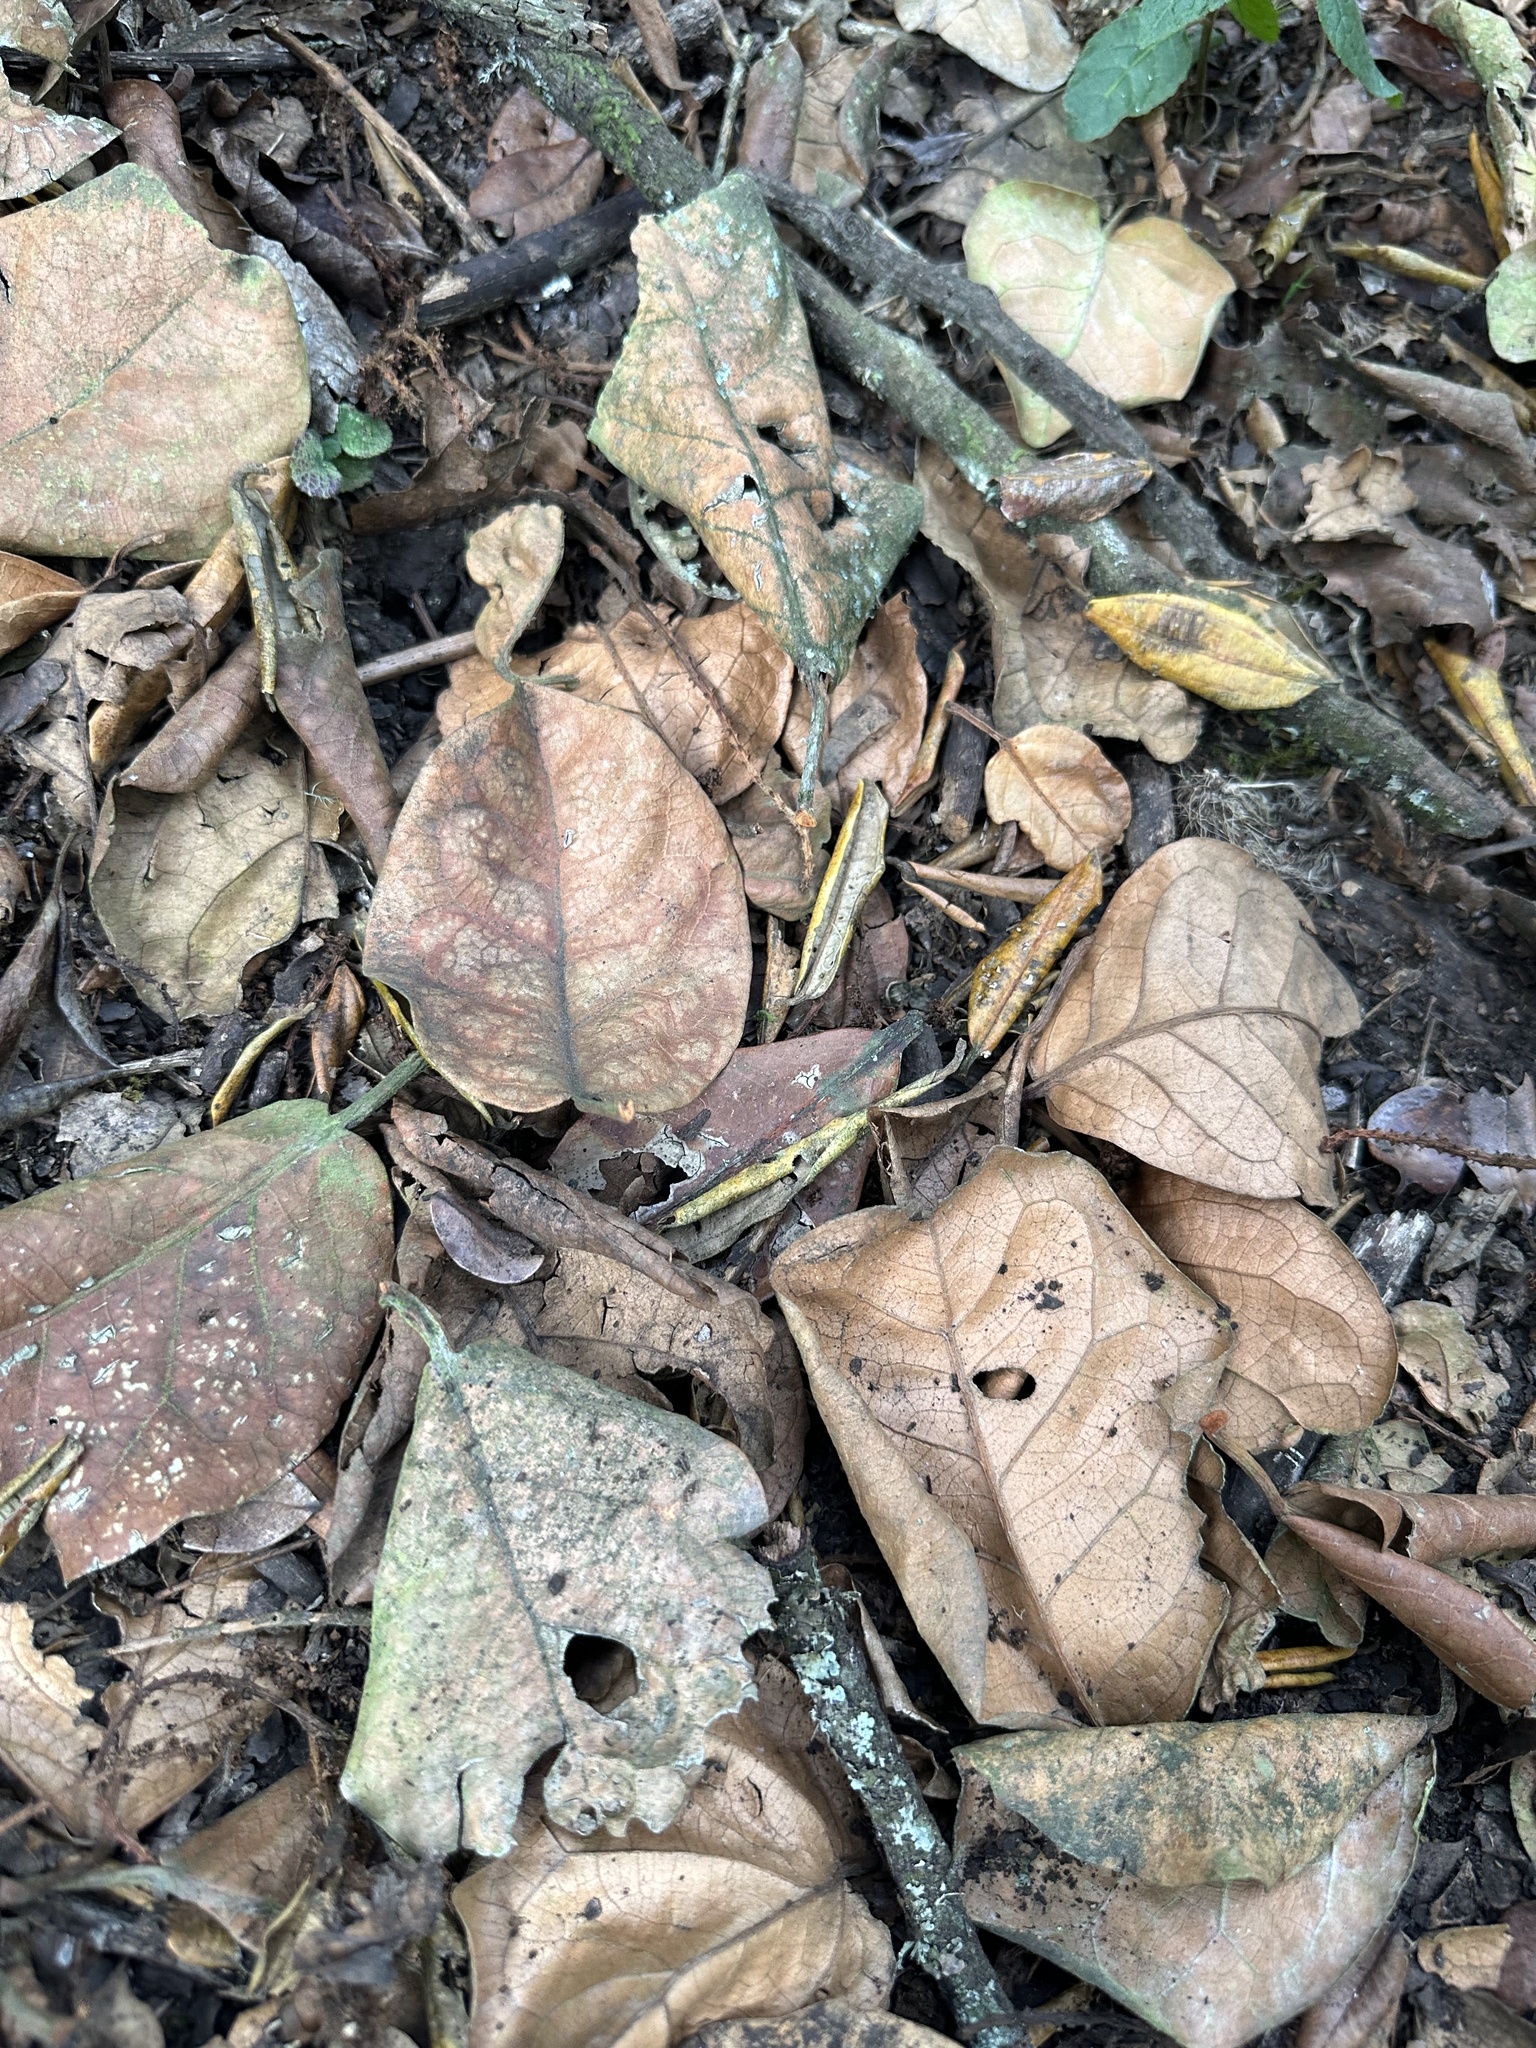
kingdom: Plantae
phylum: Tracheophyta
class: Magnoliopsida
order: Malpighiales
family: Phyllanthaceae
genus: Hieronyma
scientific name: Hieronyma rufa
